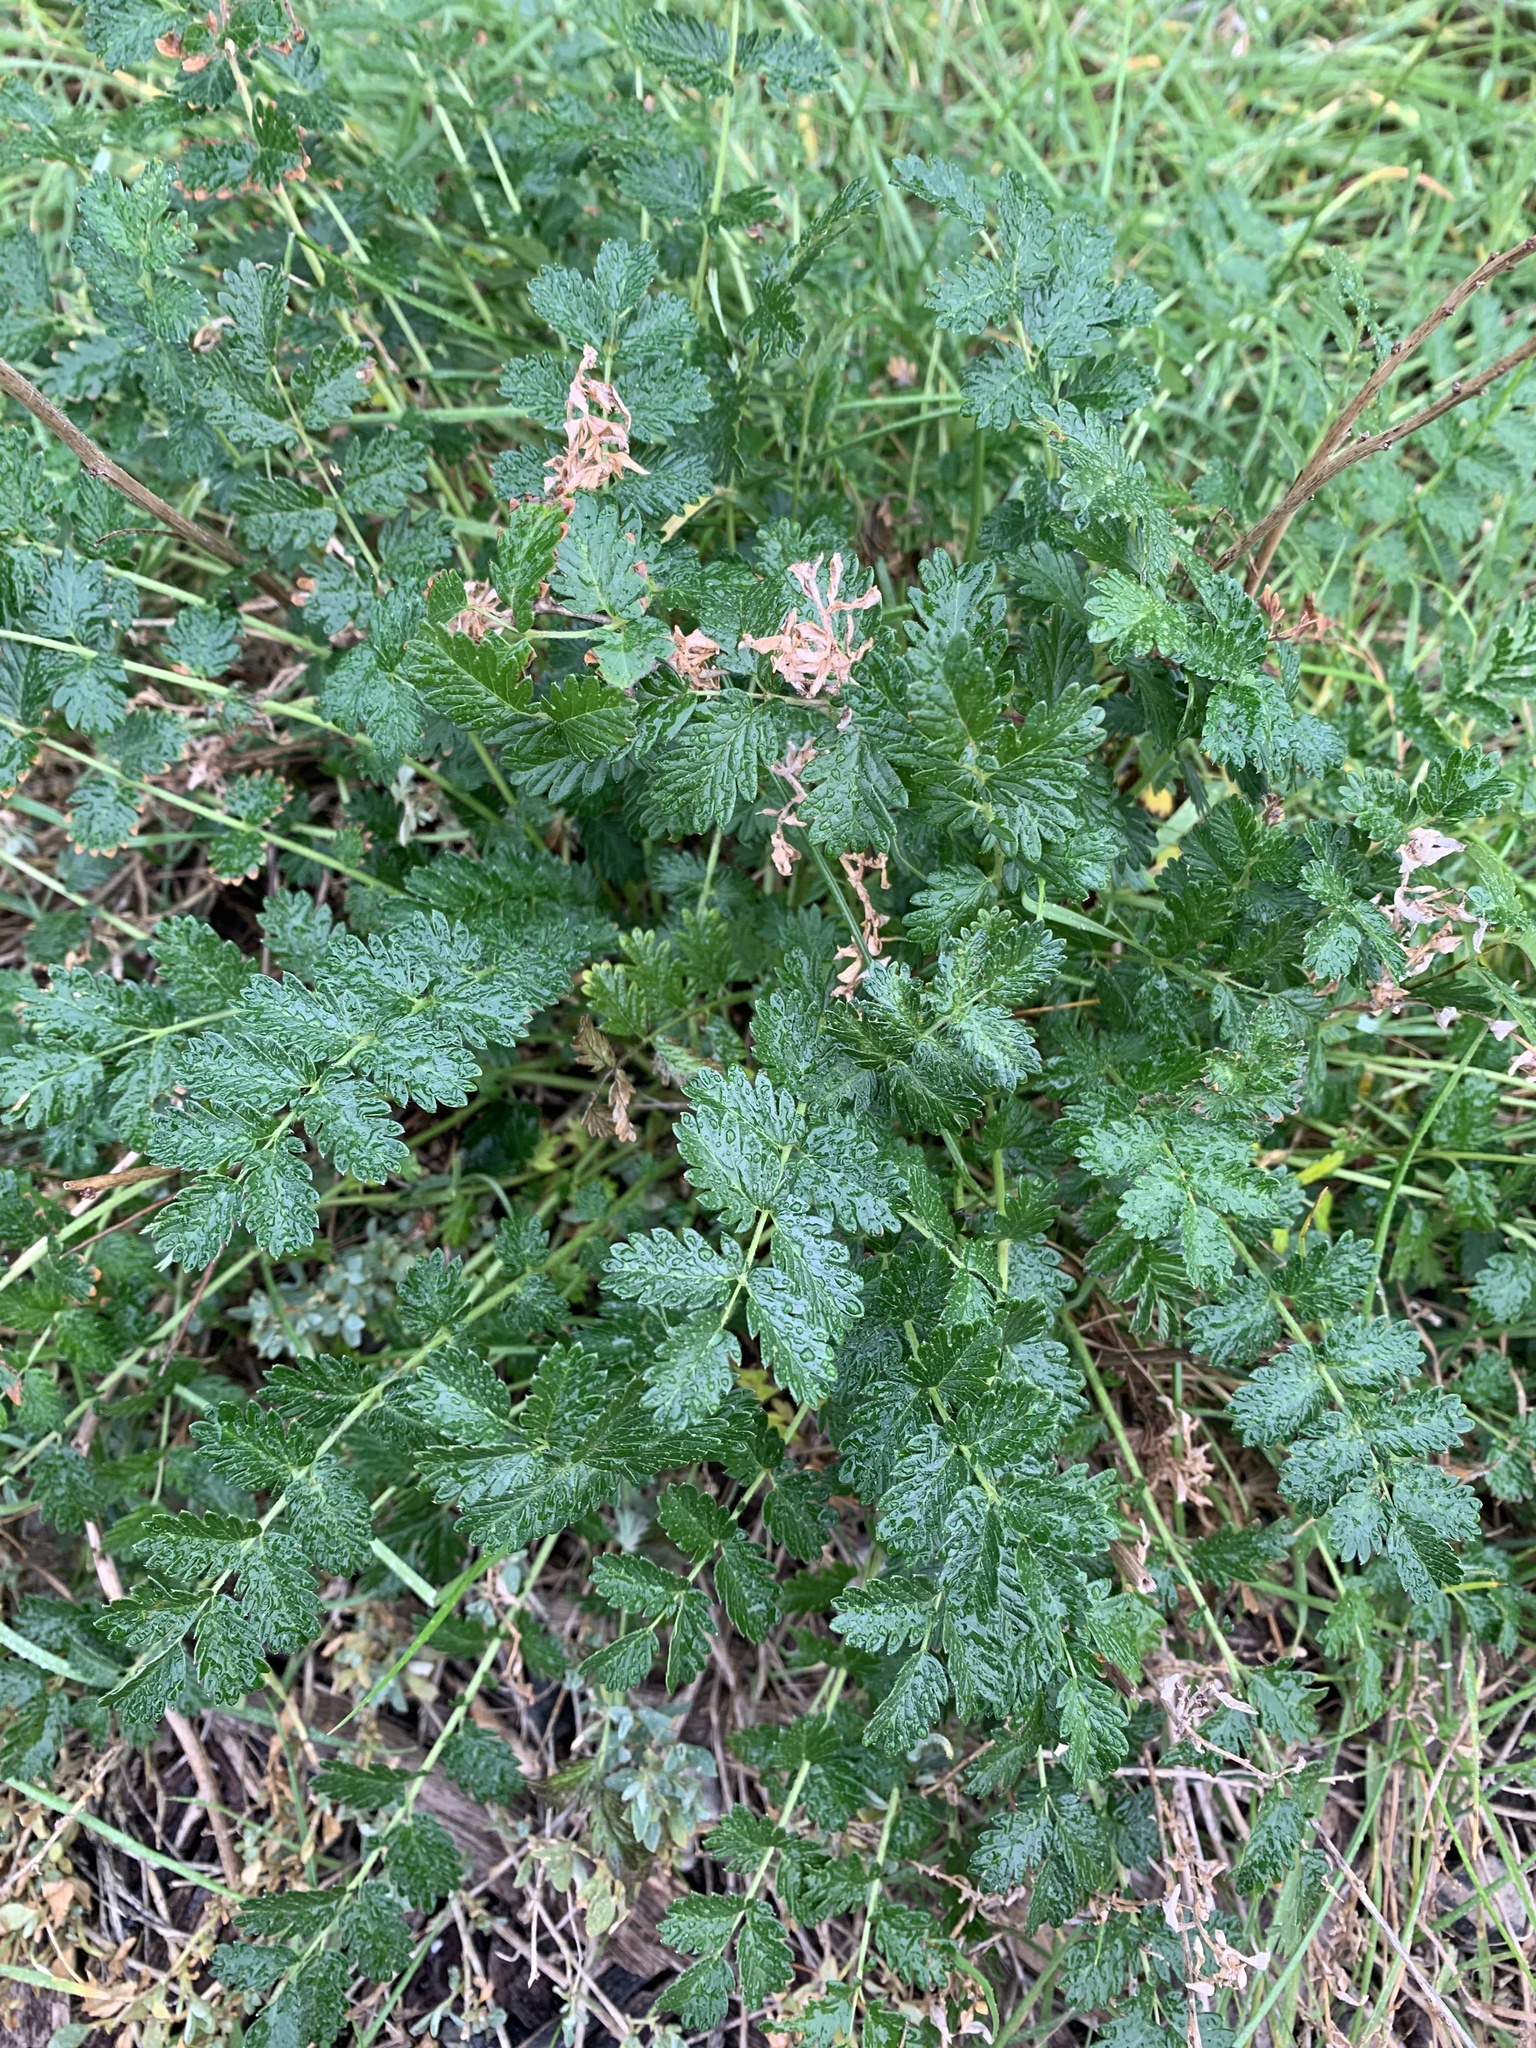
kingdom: Plantae
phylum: Tracheophyta
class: Magnoliopsida
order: Rosales
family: Rosaceae
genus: Acaena
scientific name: Acaena echinata
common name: Sheepbur
